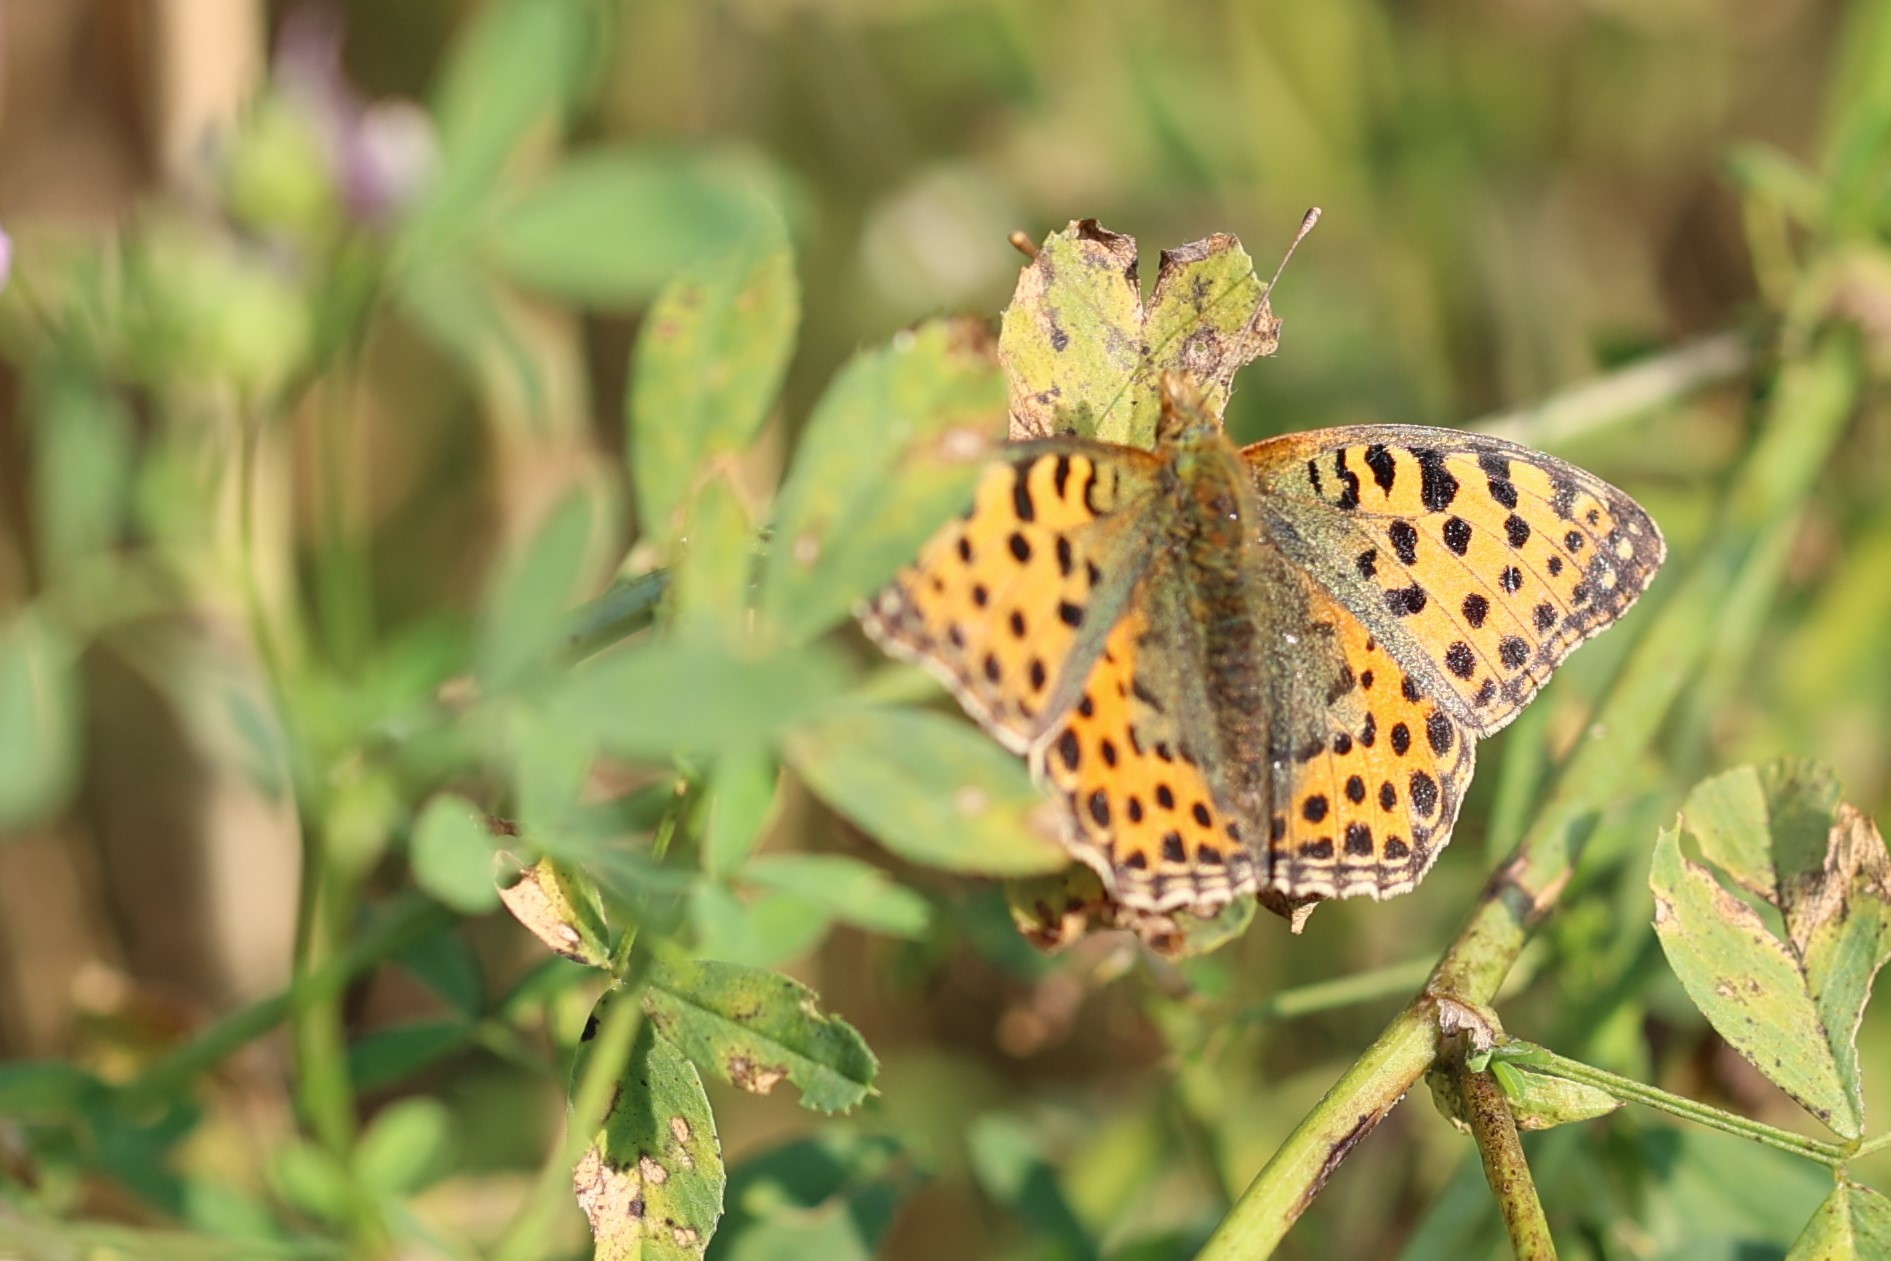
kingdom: Animalia
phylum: Arthropoda
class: Insecta
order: Lepidoptera
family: Nymphalidae
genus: Issoria
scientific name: Issoria lathonia
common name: Queen of spain fritillary
